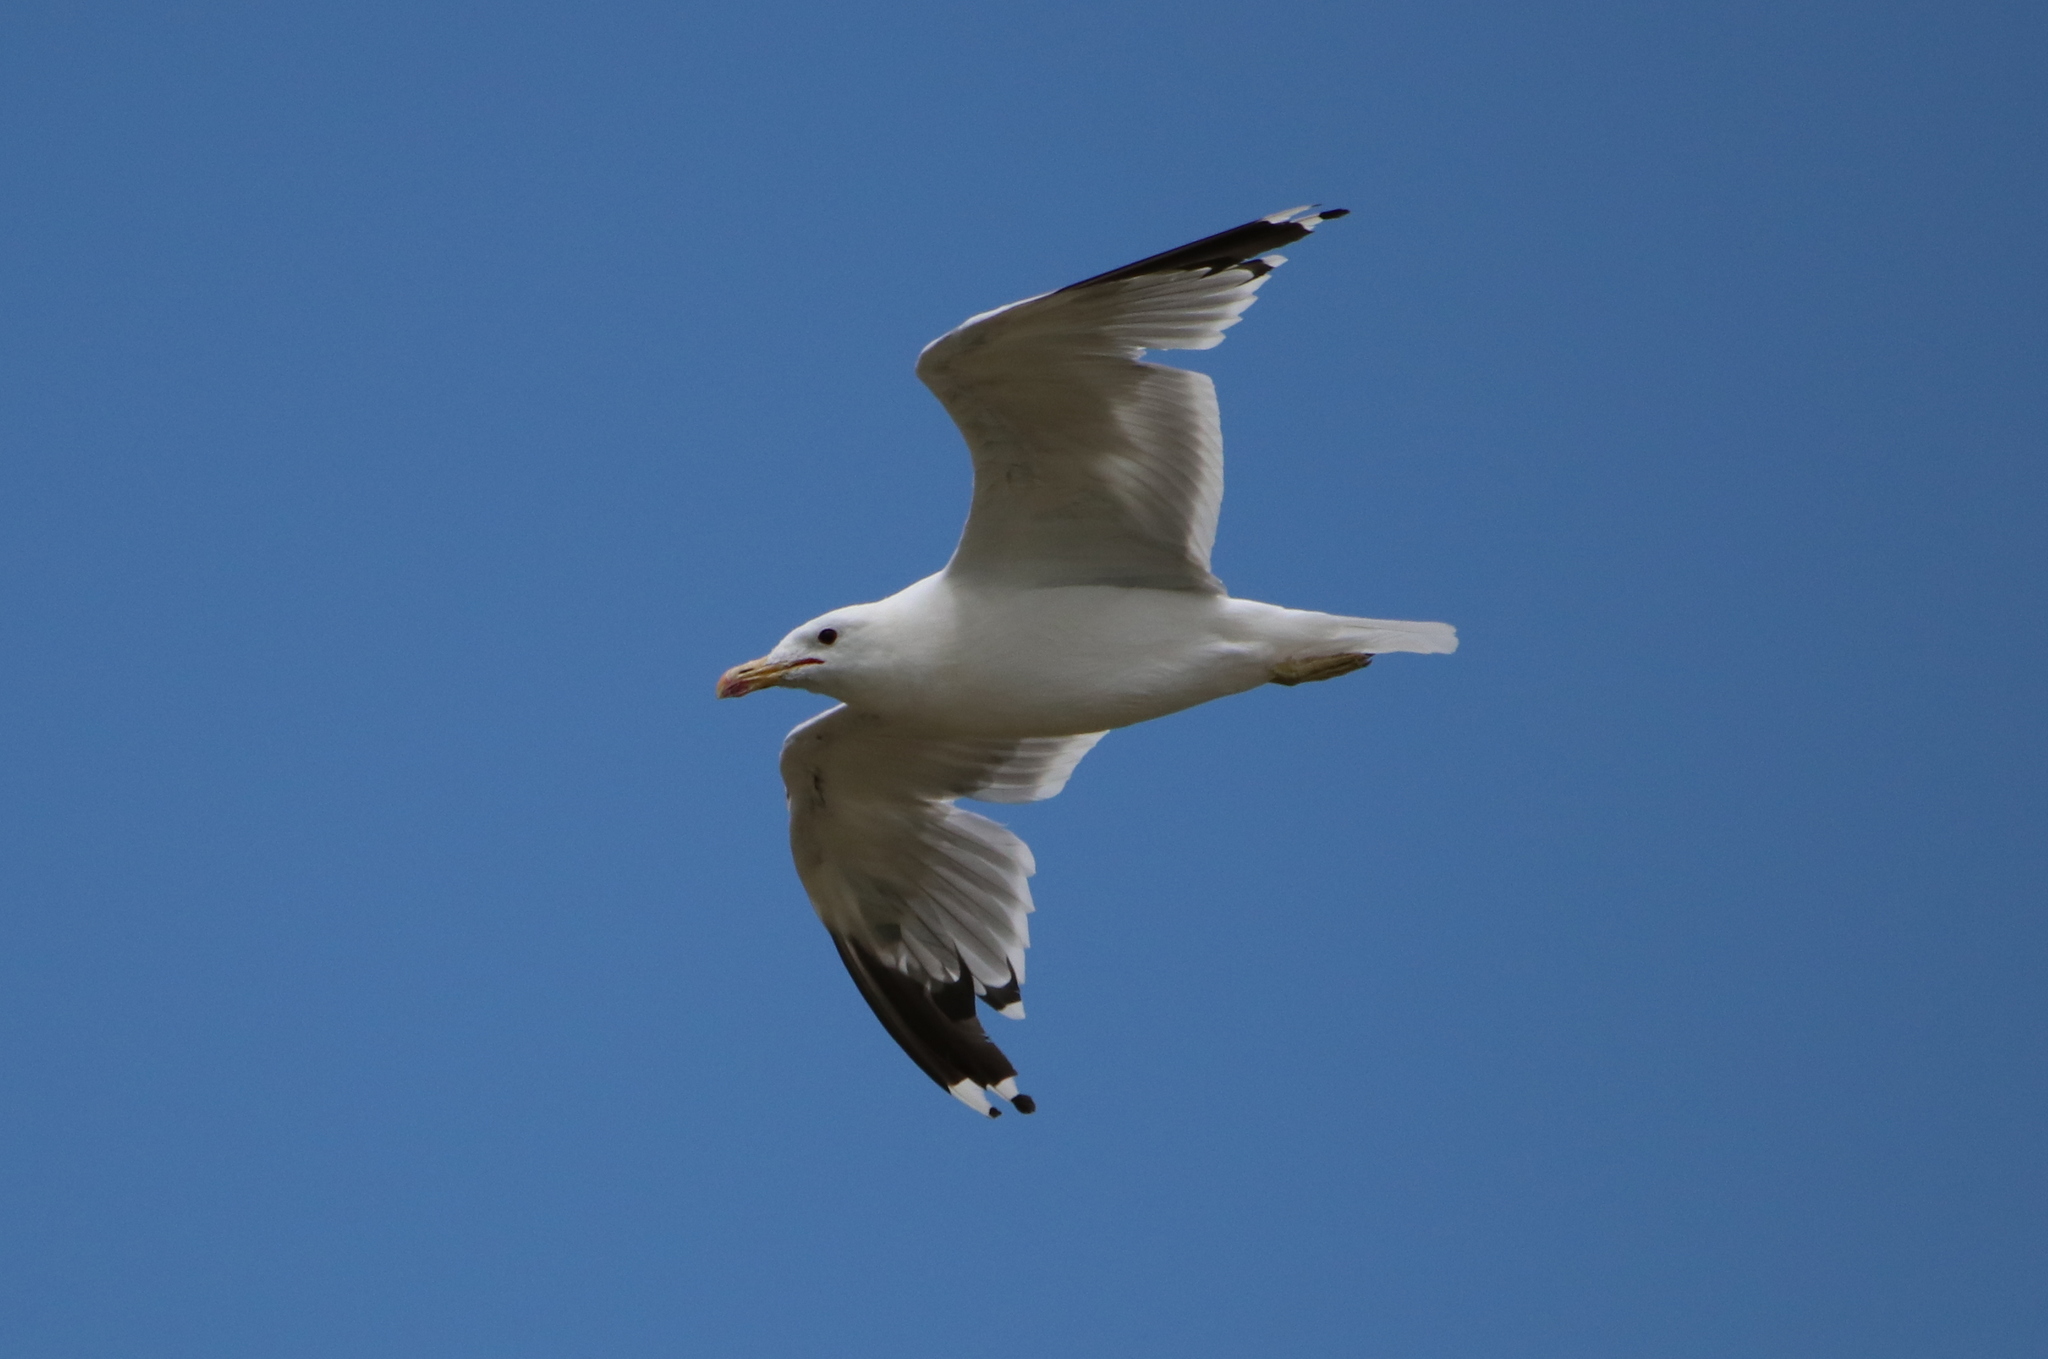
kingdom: Animalia
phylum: Chordata
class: Aves
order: Charadriiformes
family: Laridae
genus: Larus
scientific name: Larus californicus
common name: California gull
